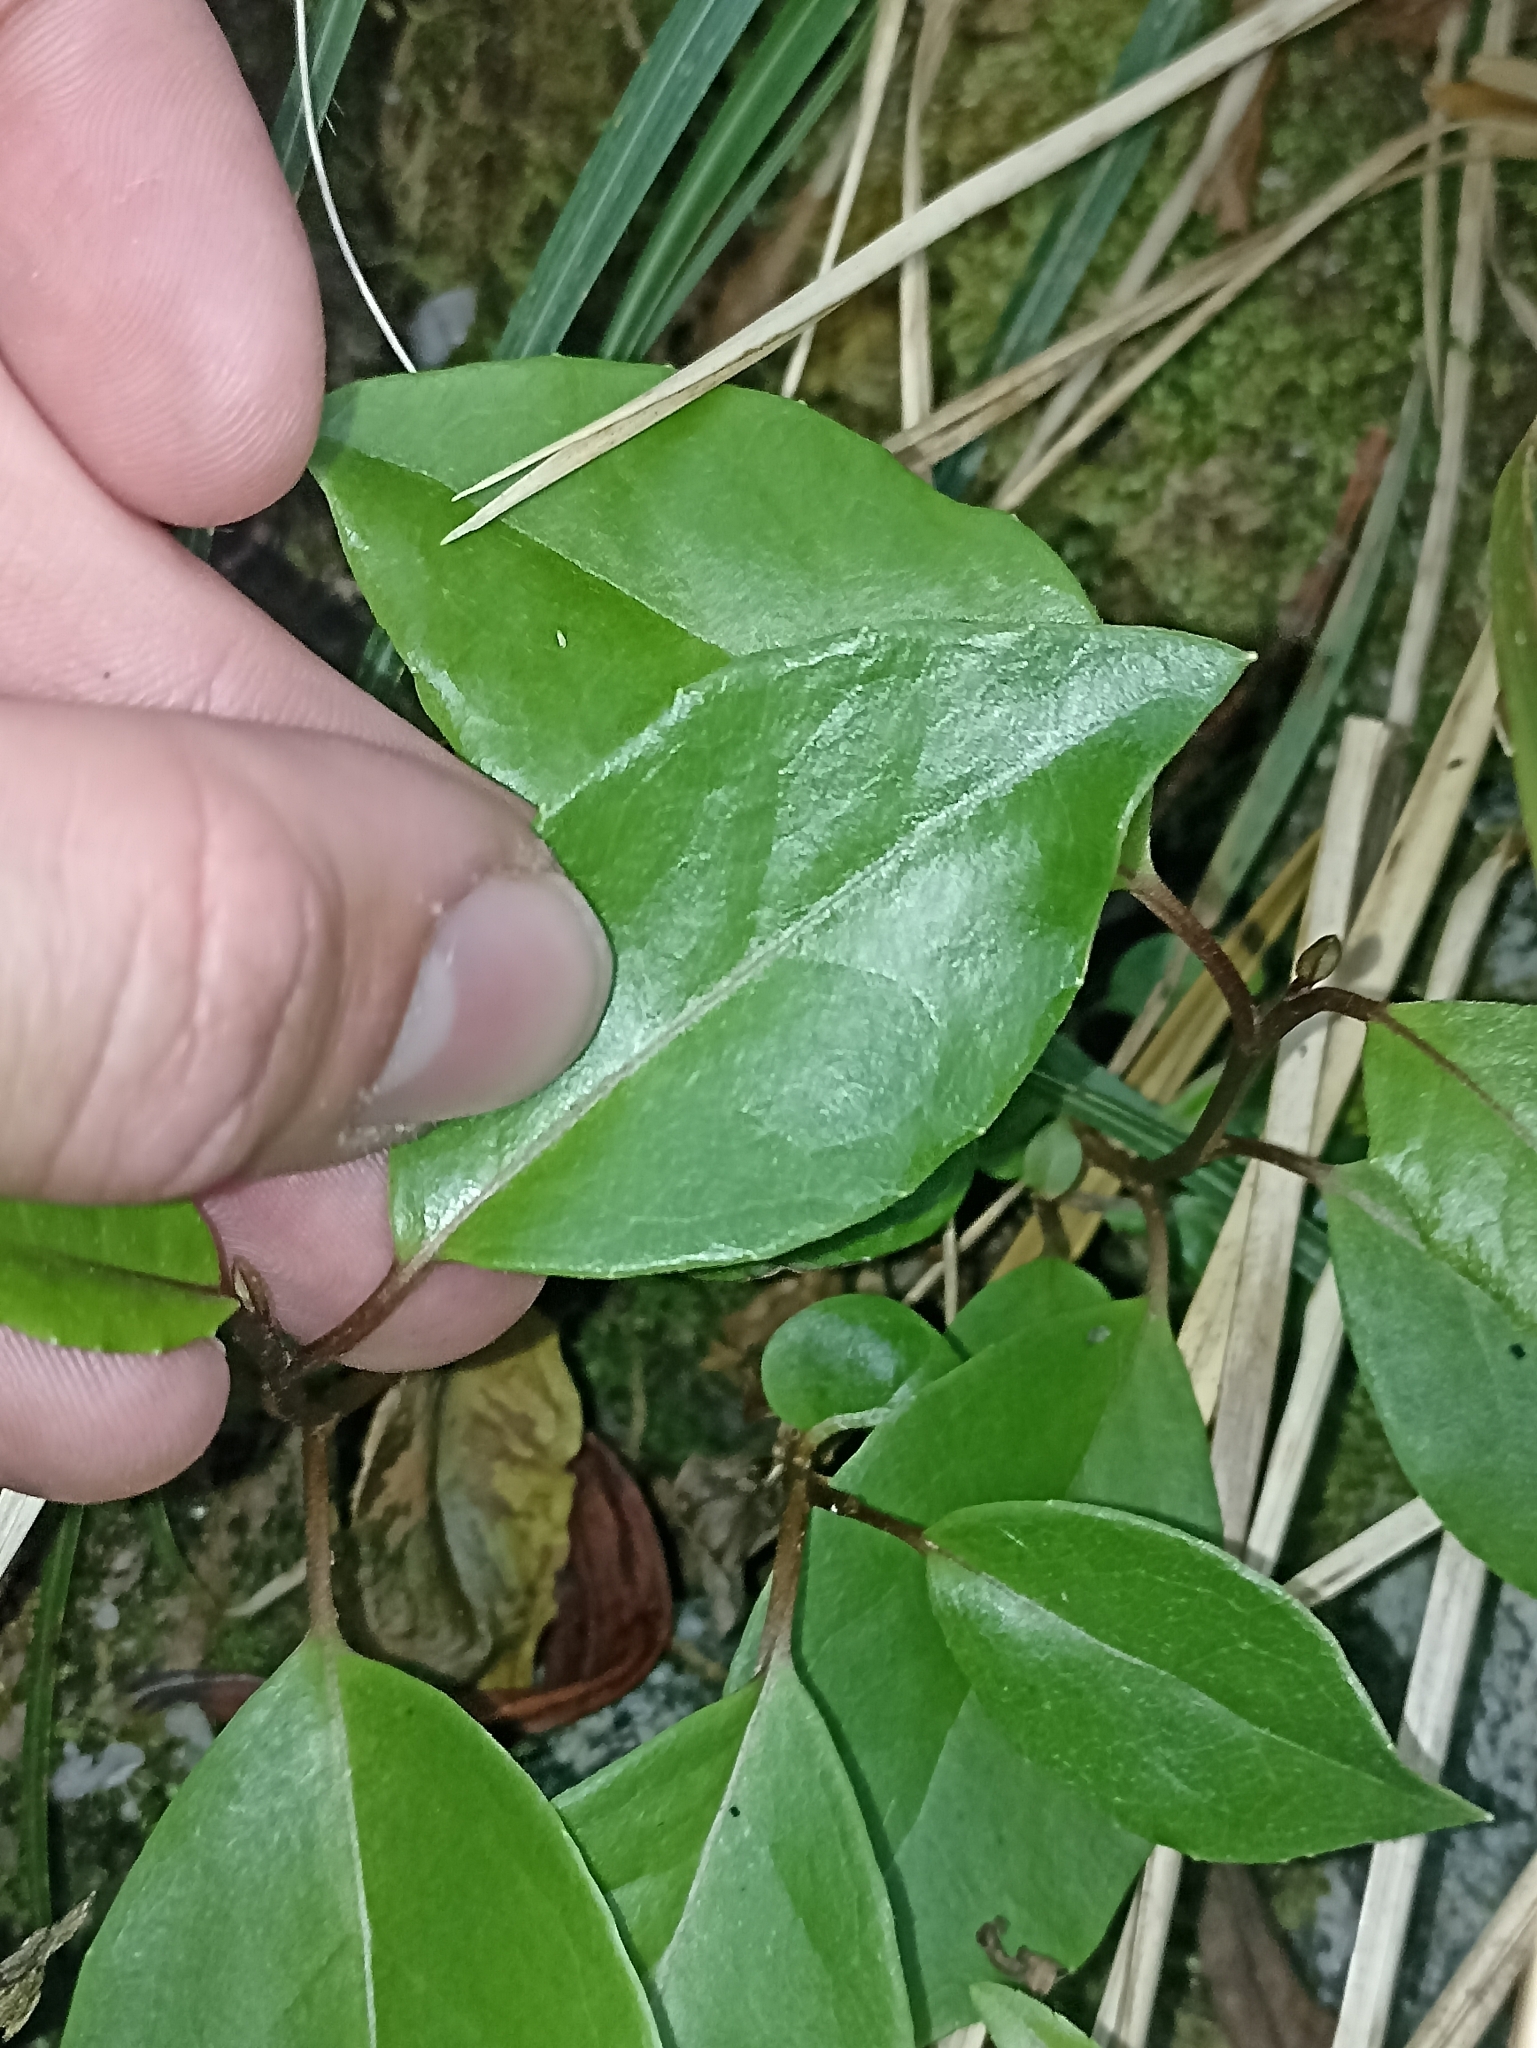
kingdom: Plantae
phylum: Tracheophyta
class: Magnoliopsida
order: Asterales
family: Asteraceae
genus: Olearia
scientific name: Olearia arborescens
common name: Glossy tree daisy
